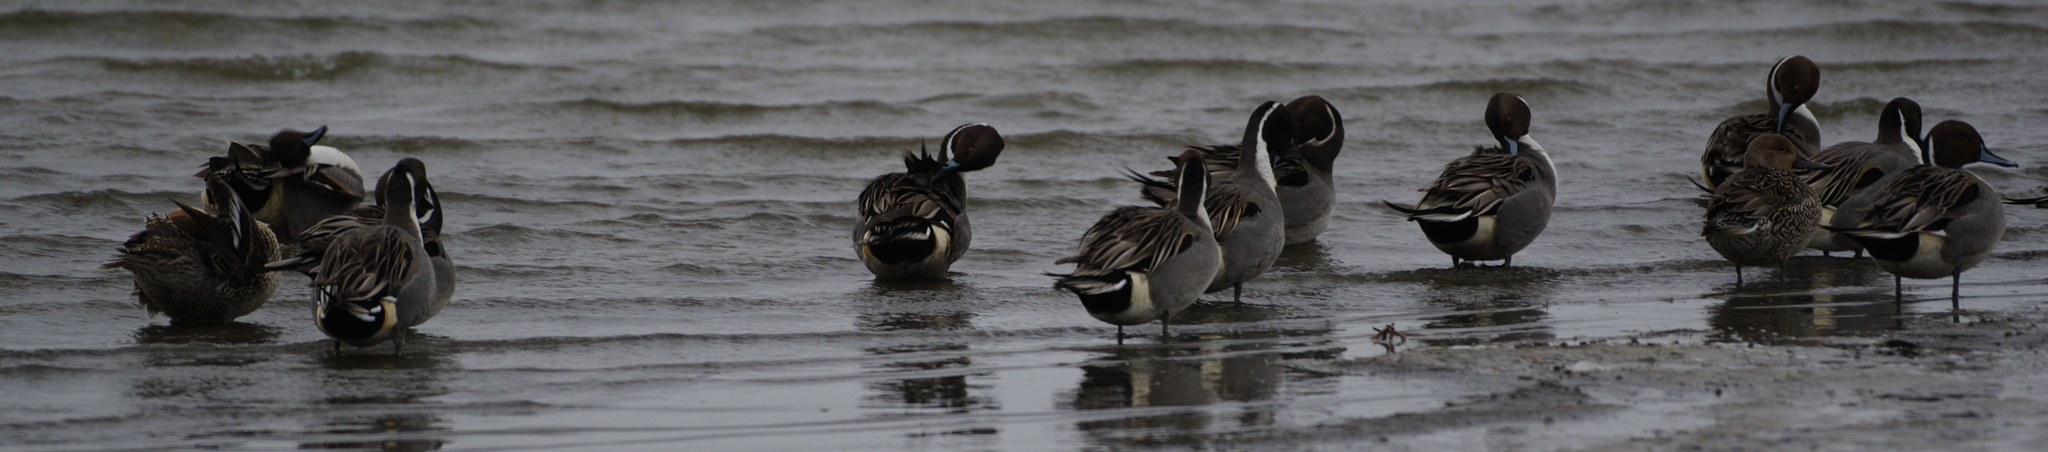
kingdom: Animalia
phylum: Chordata
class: Aves
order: Anseriformes
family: Anatidae
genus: Anas
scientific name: Anas acuta
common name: Northern pintail
